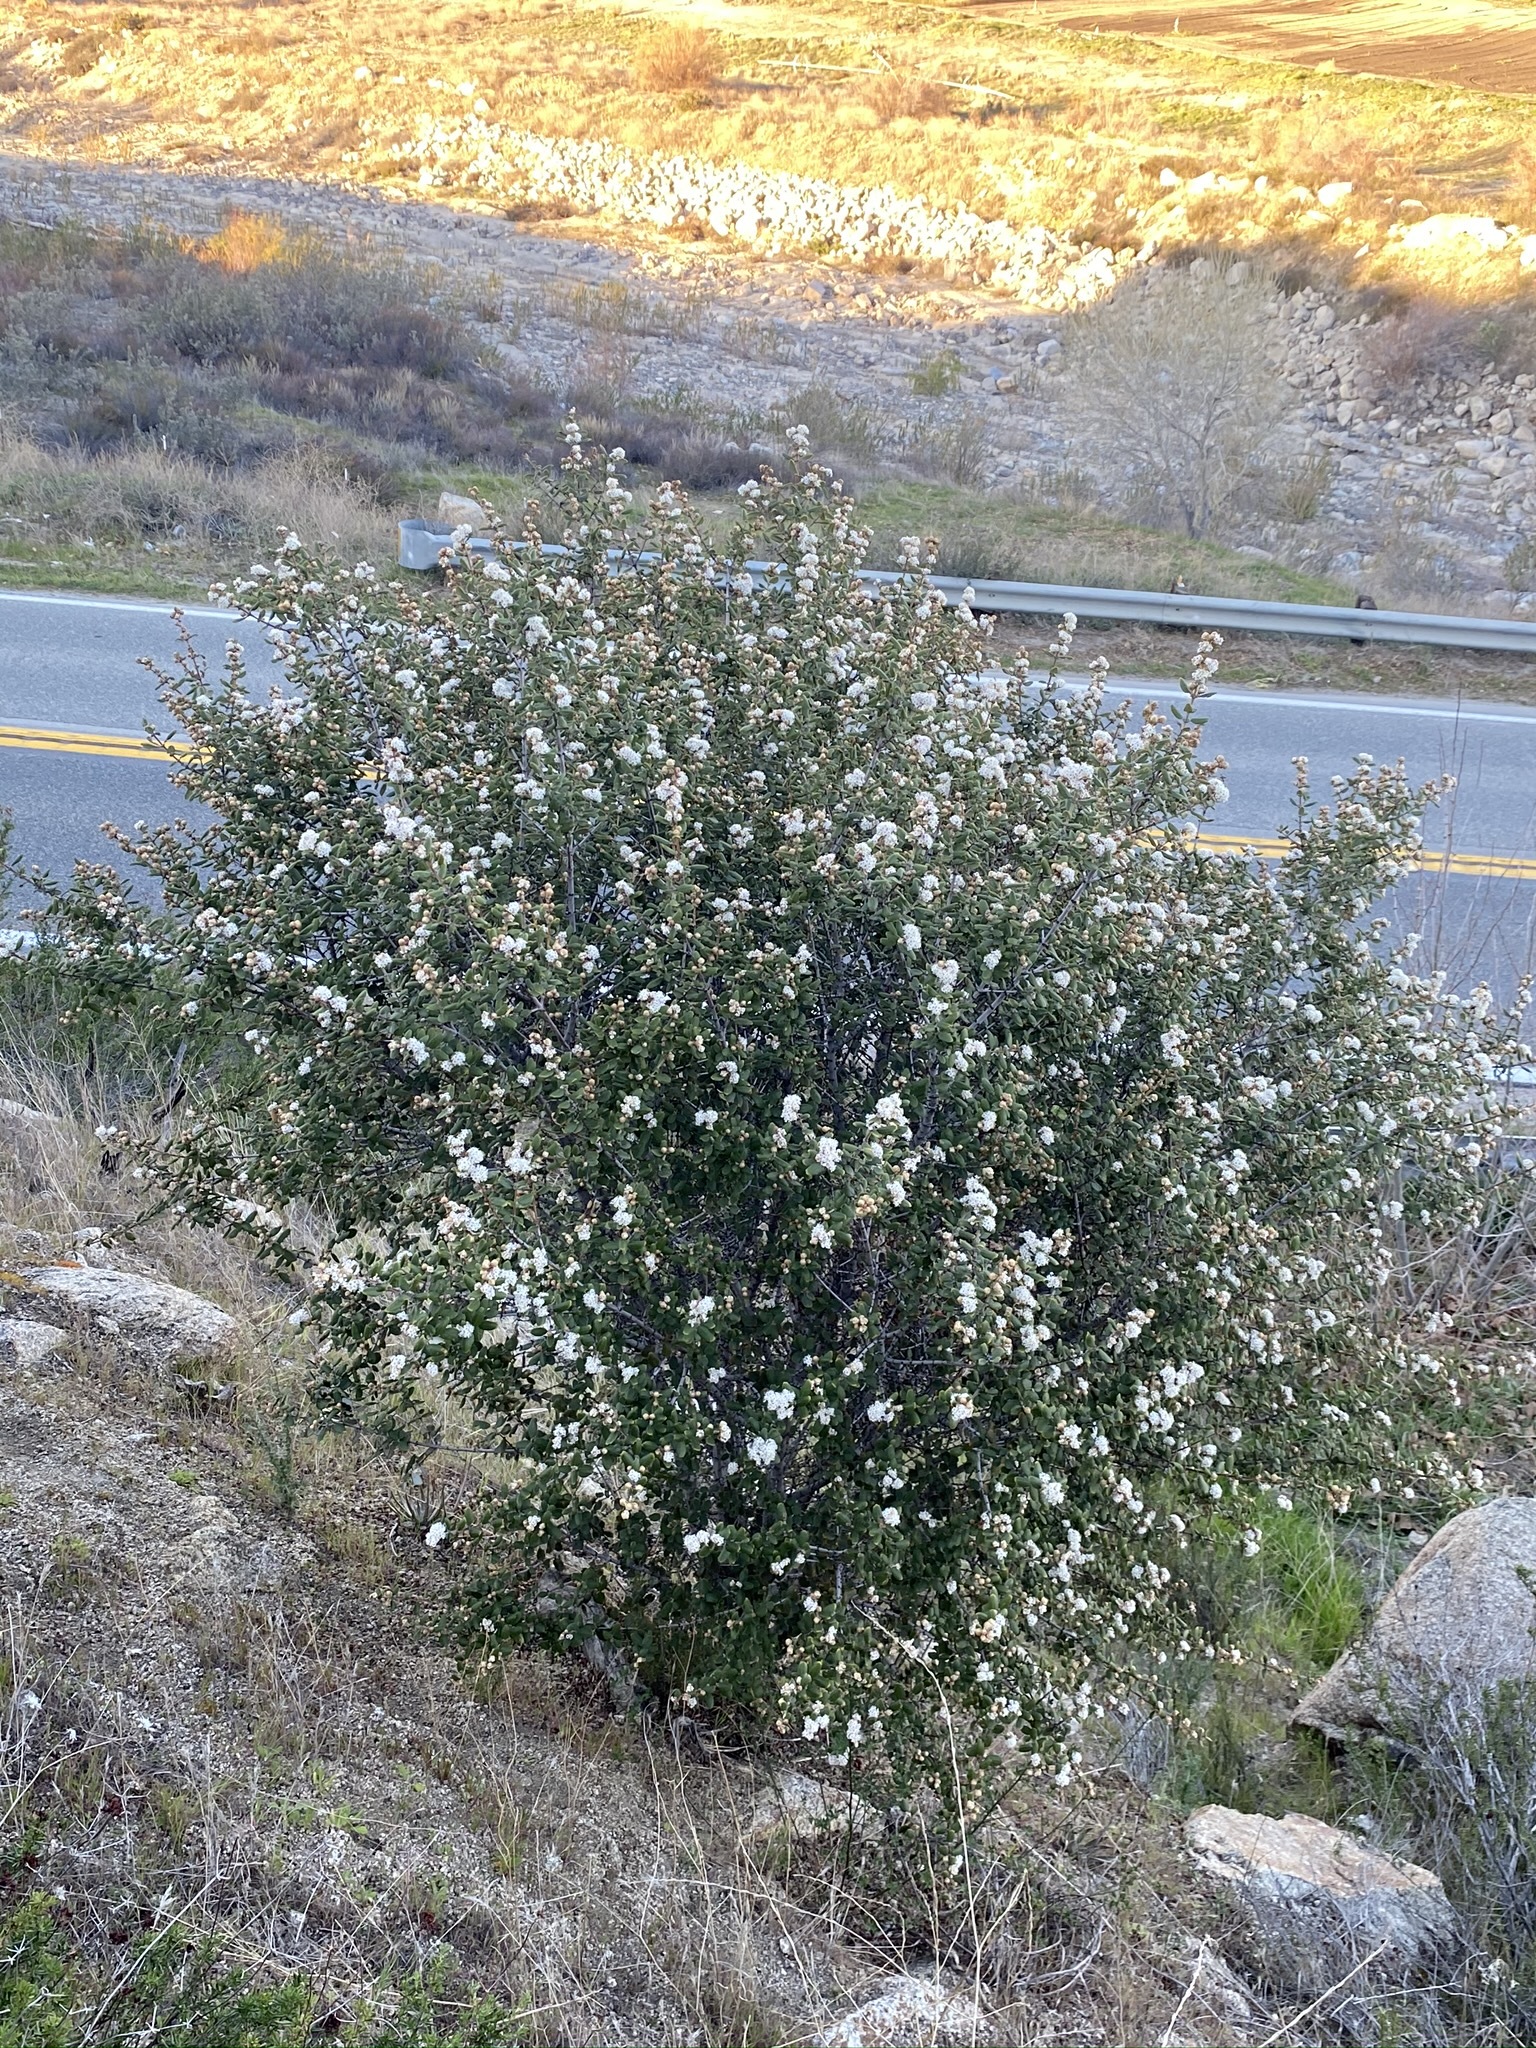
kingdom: Plantae
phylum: Tracheophyta
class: Magnoliopsida
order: Rosales
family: Rhamnaceae
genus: Ceanothus
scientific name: Ceanothus crassifolius
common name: Hoaryleaf ceanothus
